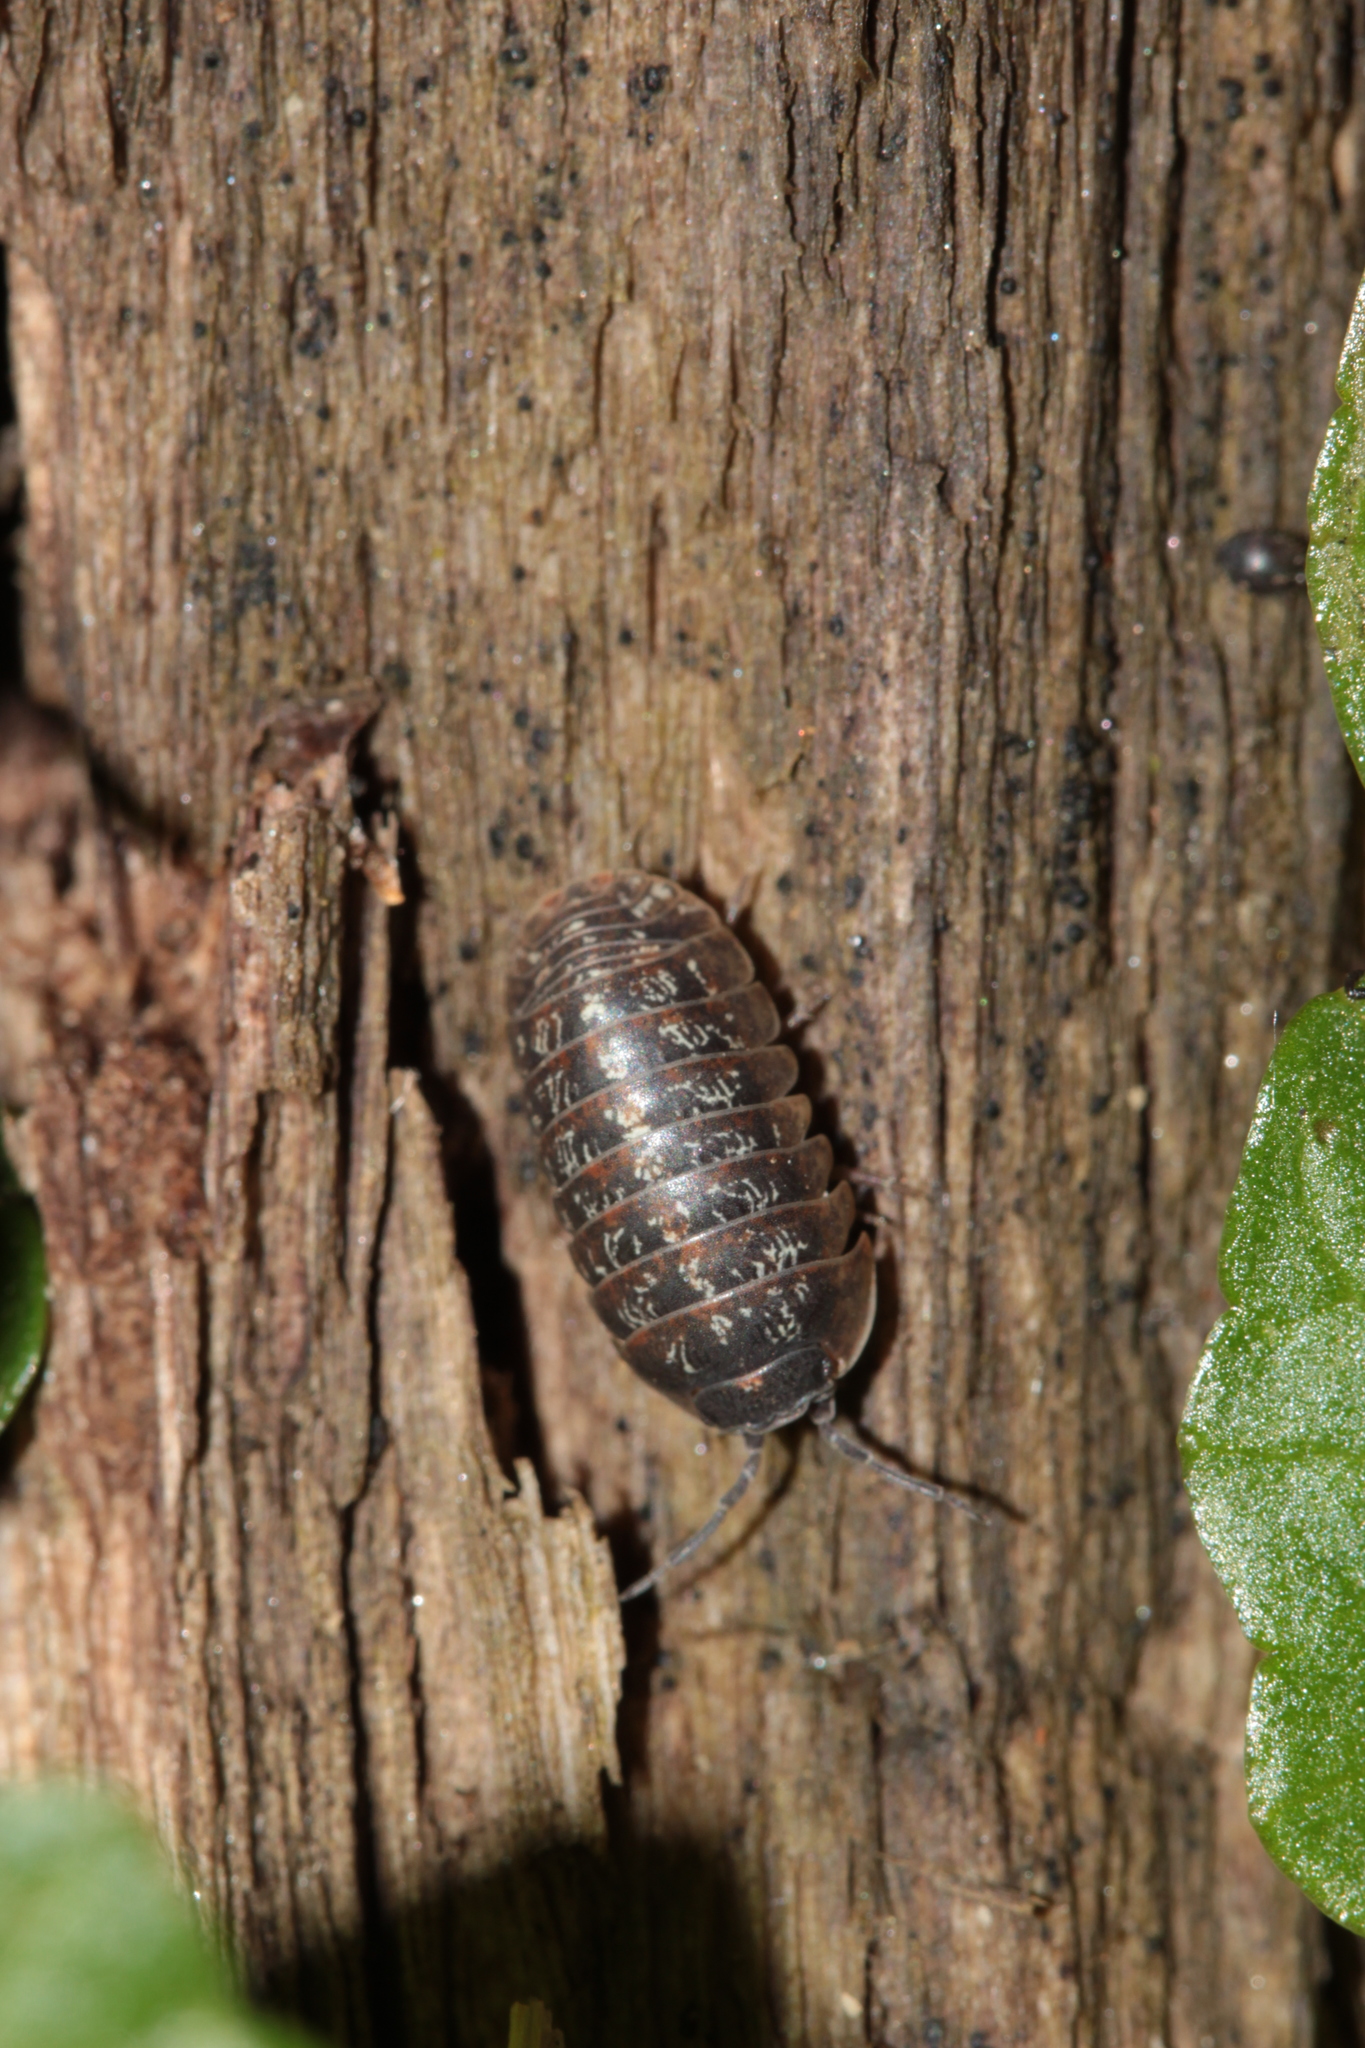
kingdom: Animalia
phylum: Arthropoda
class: Malacostraca
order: Isopoda
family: Armadillidiidae
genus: Armadillidium
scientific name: Armadillidium opacum
